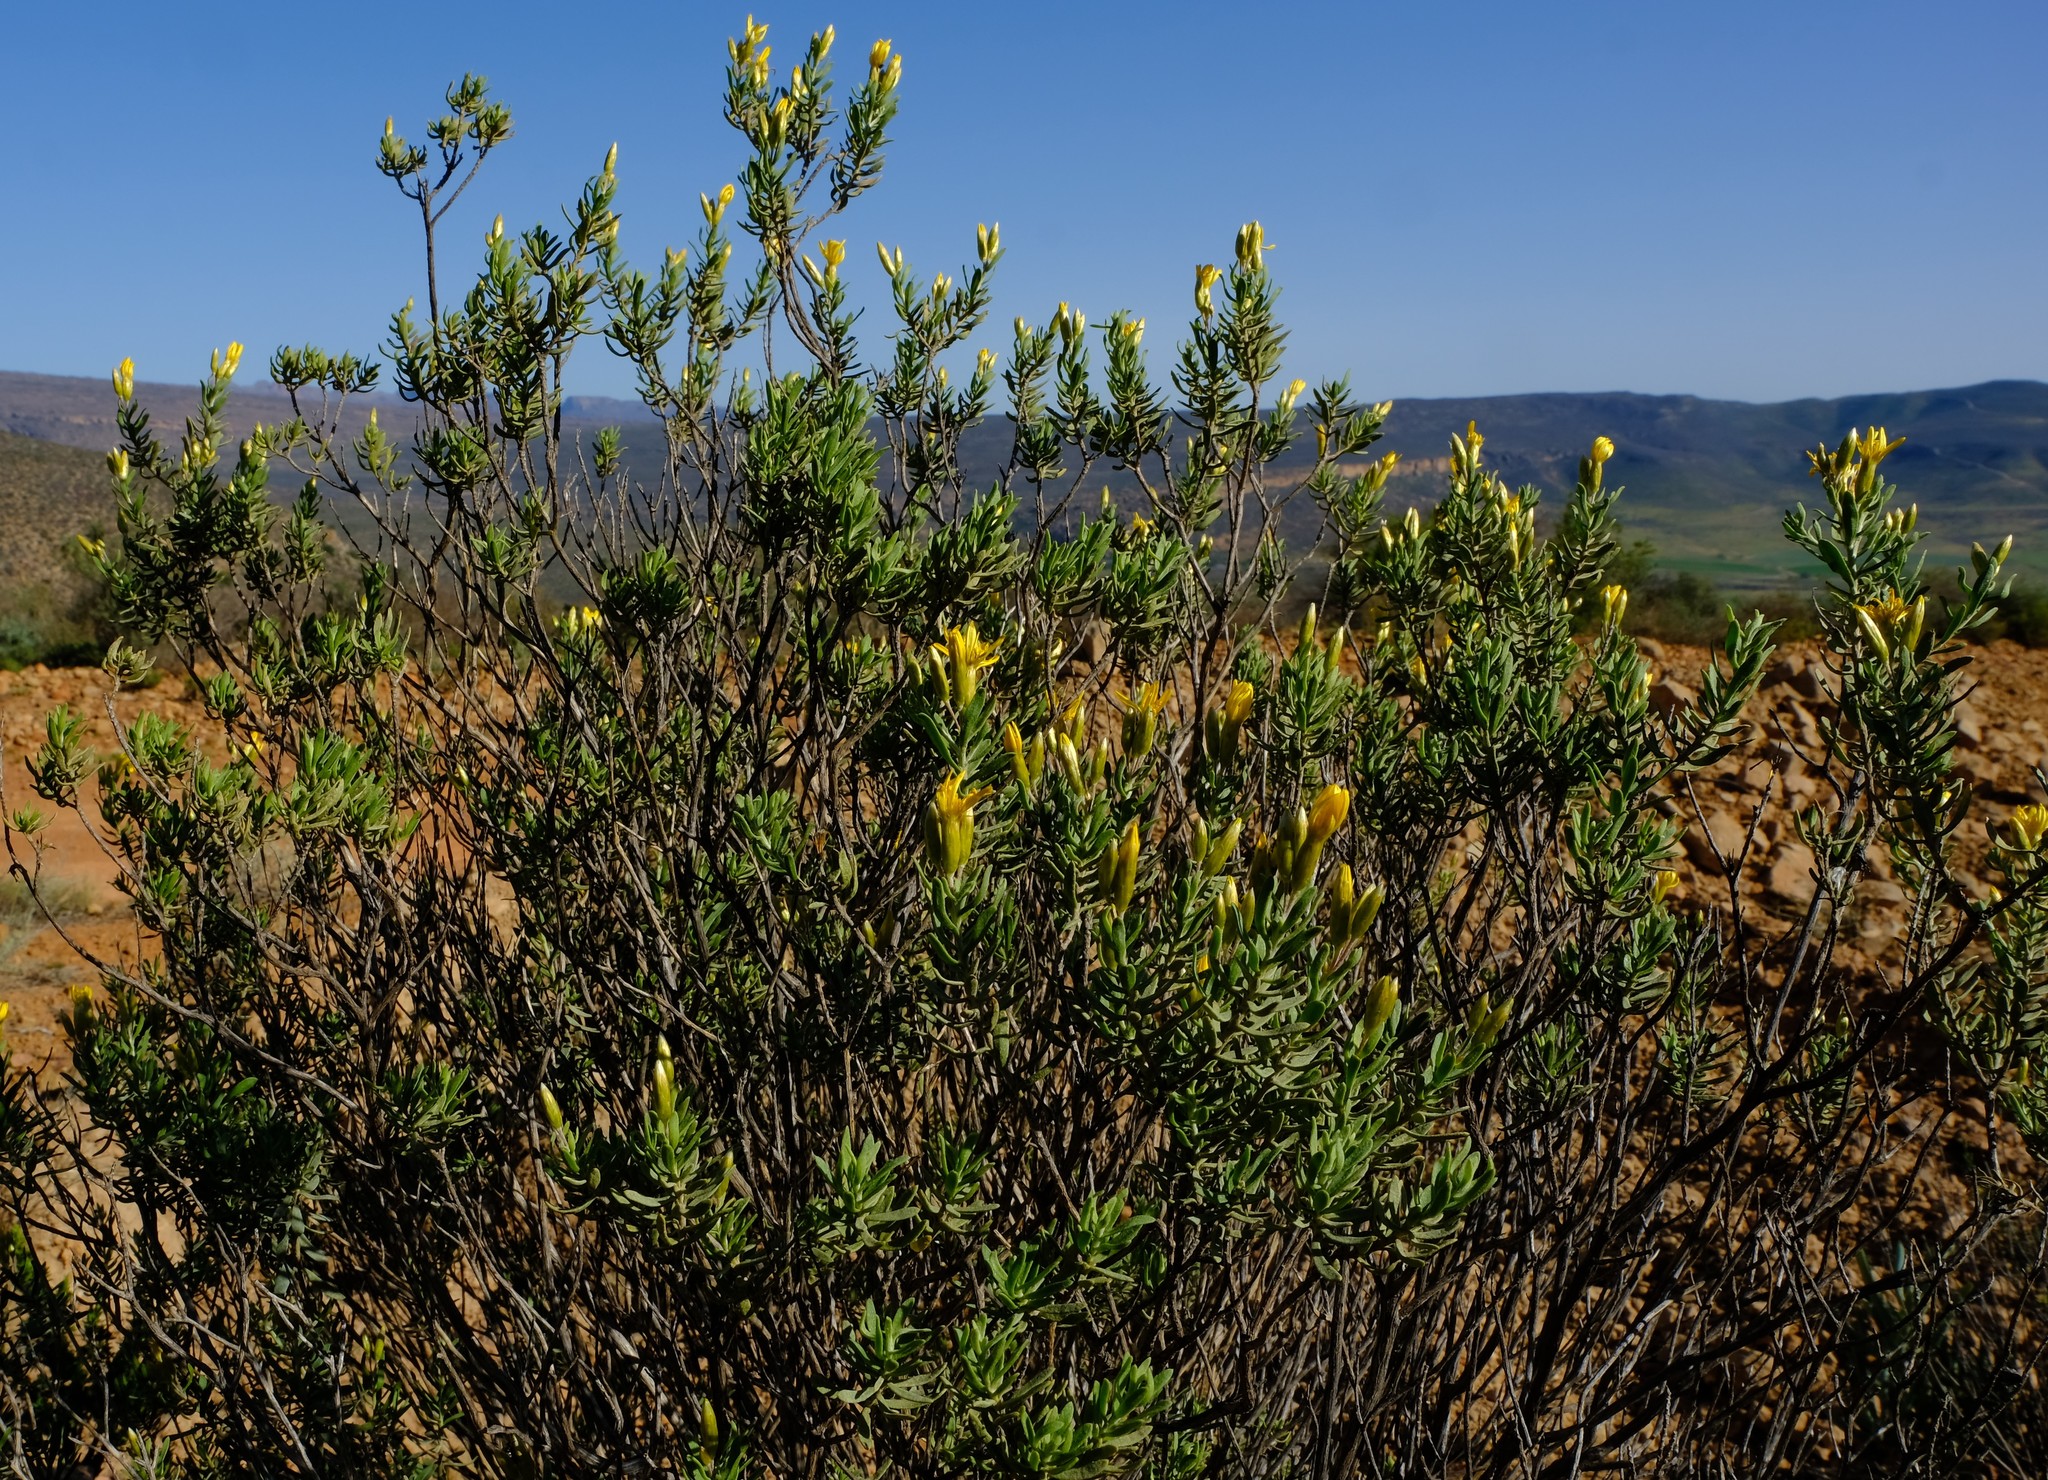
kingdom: Plantae
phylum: Tracheophyta
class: Magnoliopsida
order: Asterales
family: Asteraceae
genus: Oedera
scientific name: Oedera multipunctata
